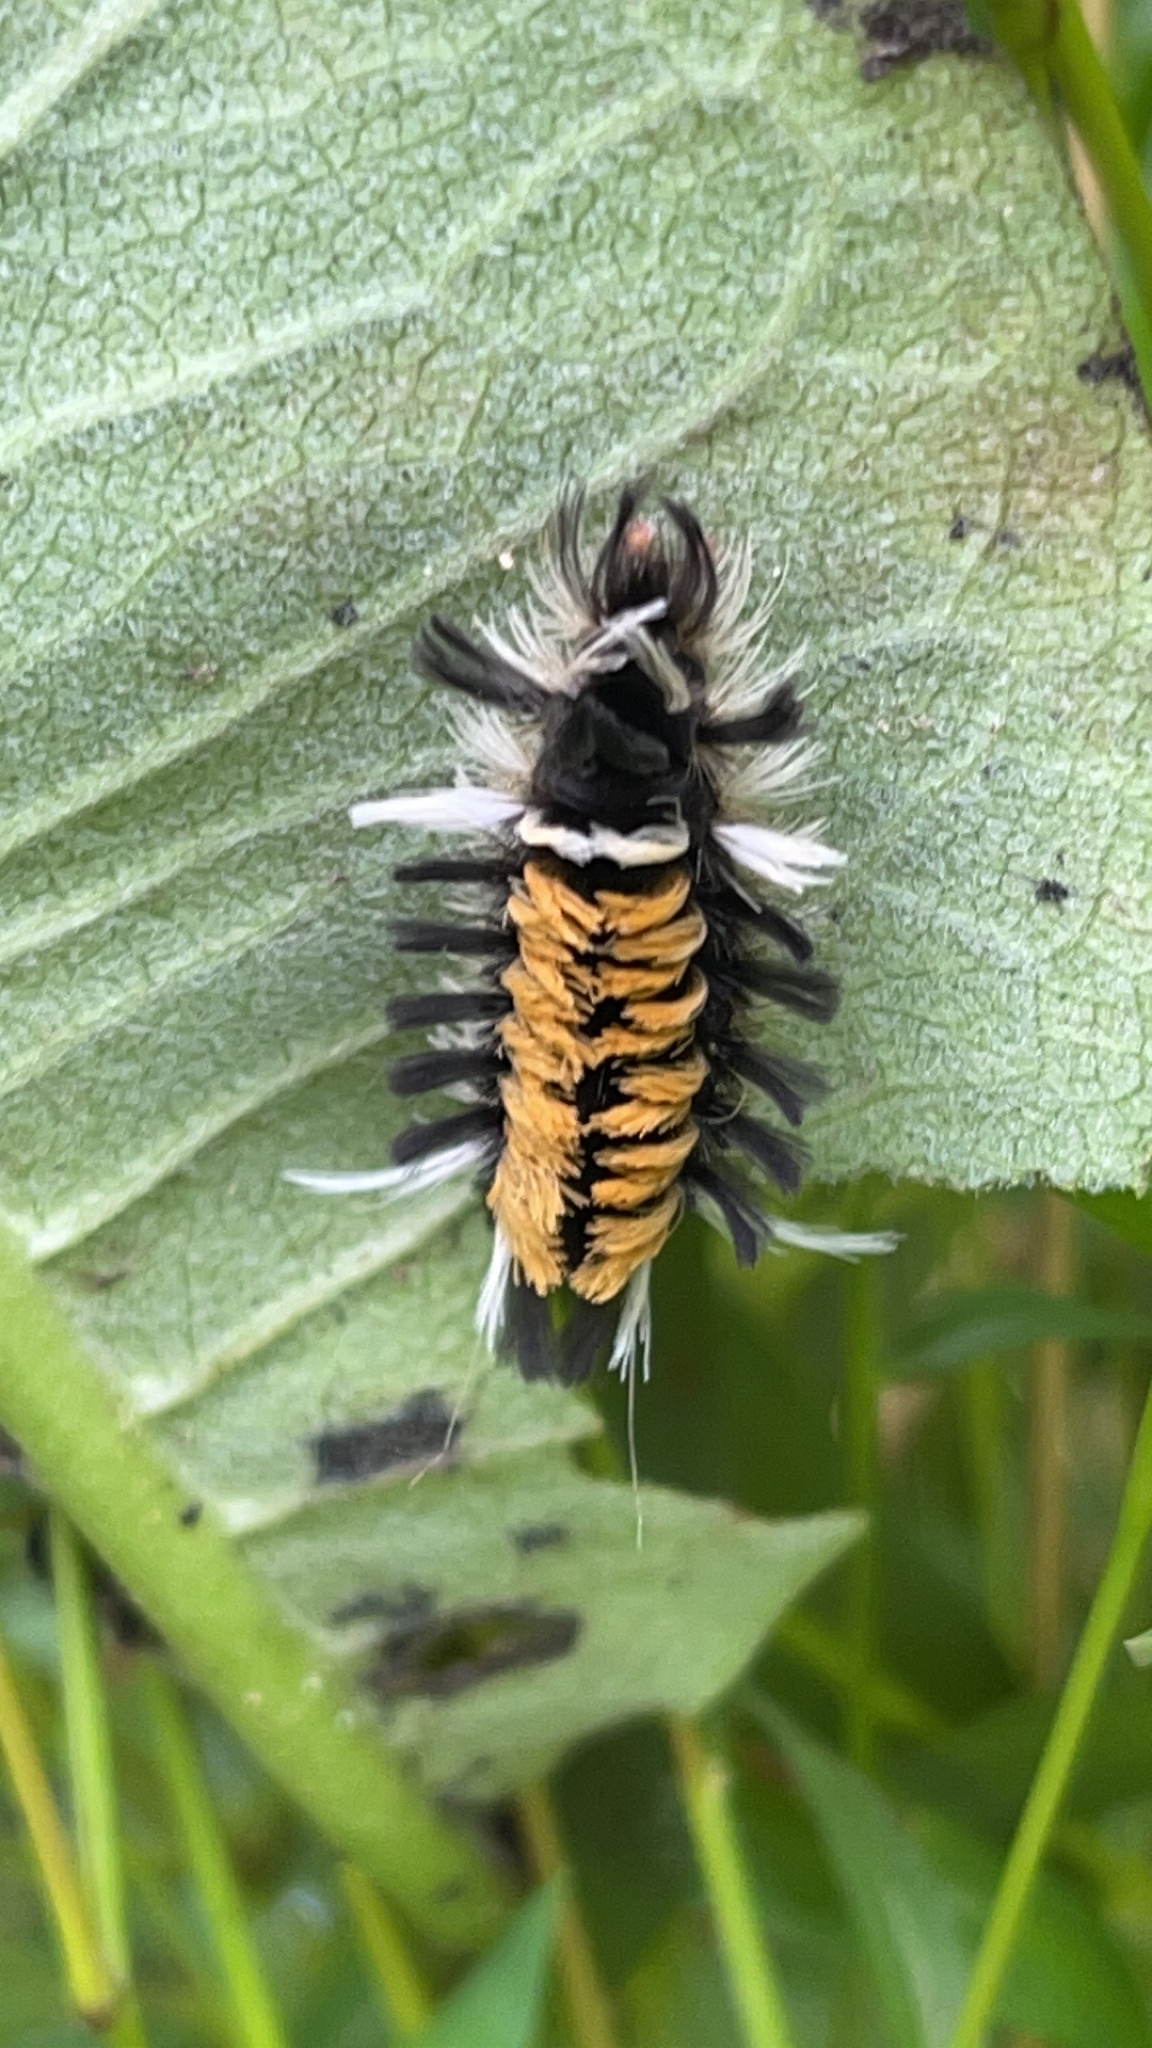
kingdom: Animalia
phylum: Arthropoda
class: Insecta
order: Lepidoptera
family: Erebidae
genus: Euchaetes
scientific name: Euchaetes egle
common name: Milkweed tussock moth
